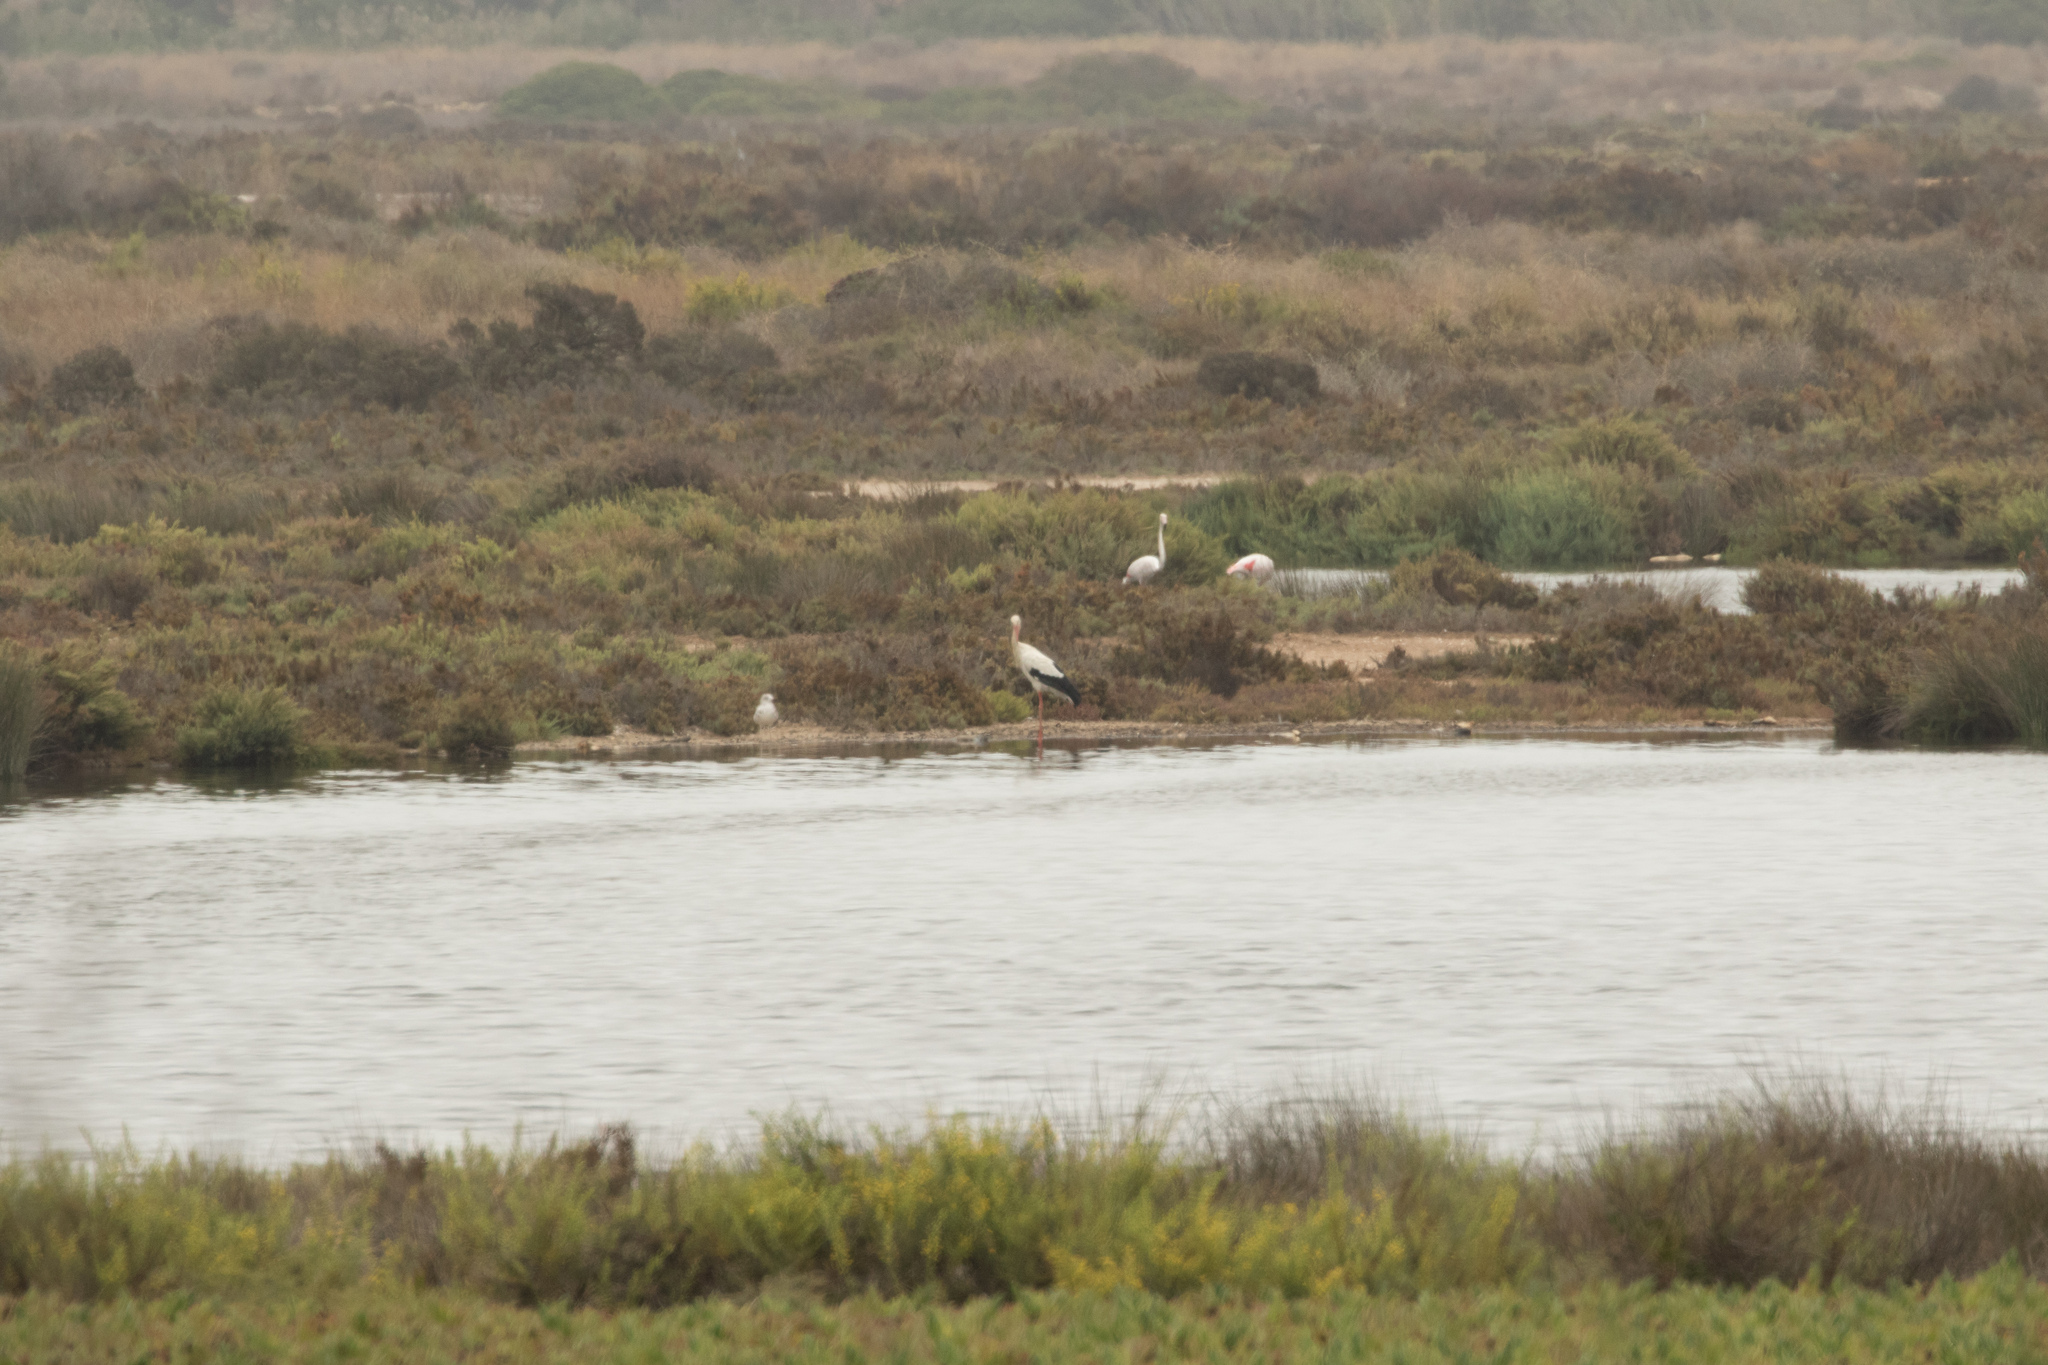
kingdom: Animalia
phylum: Chordata
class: Aves
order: Ciconiiformes
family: Ciconiidae
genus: Ciconia
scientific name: Ciconia ciconia
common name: White stork
